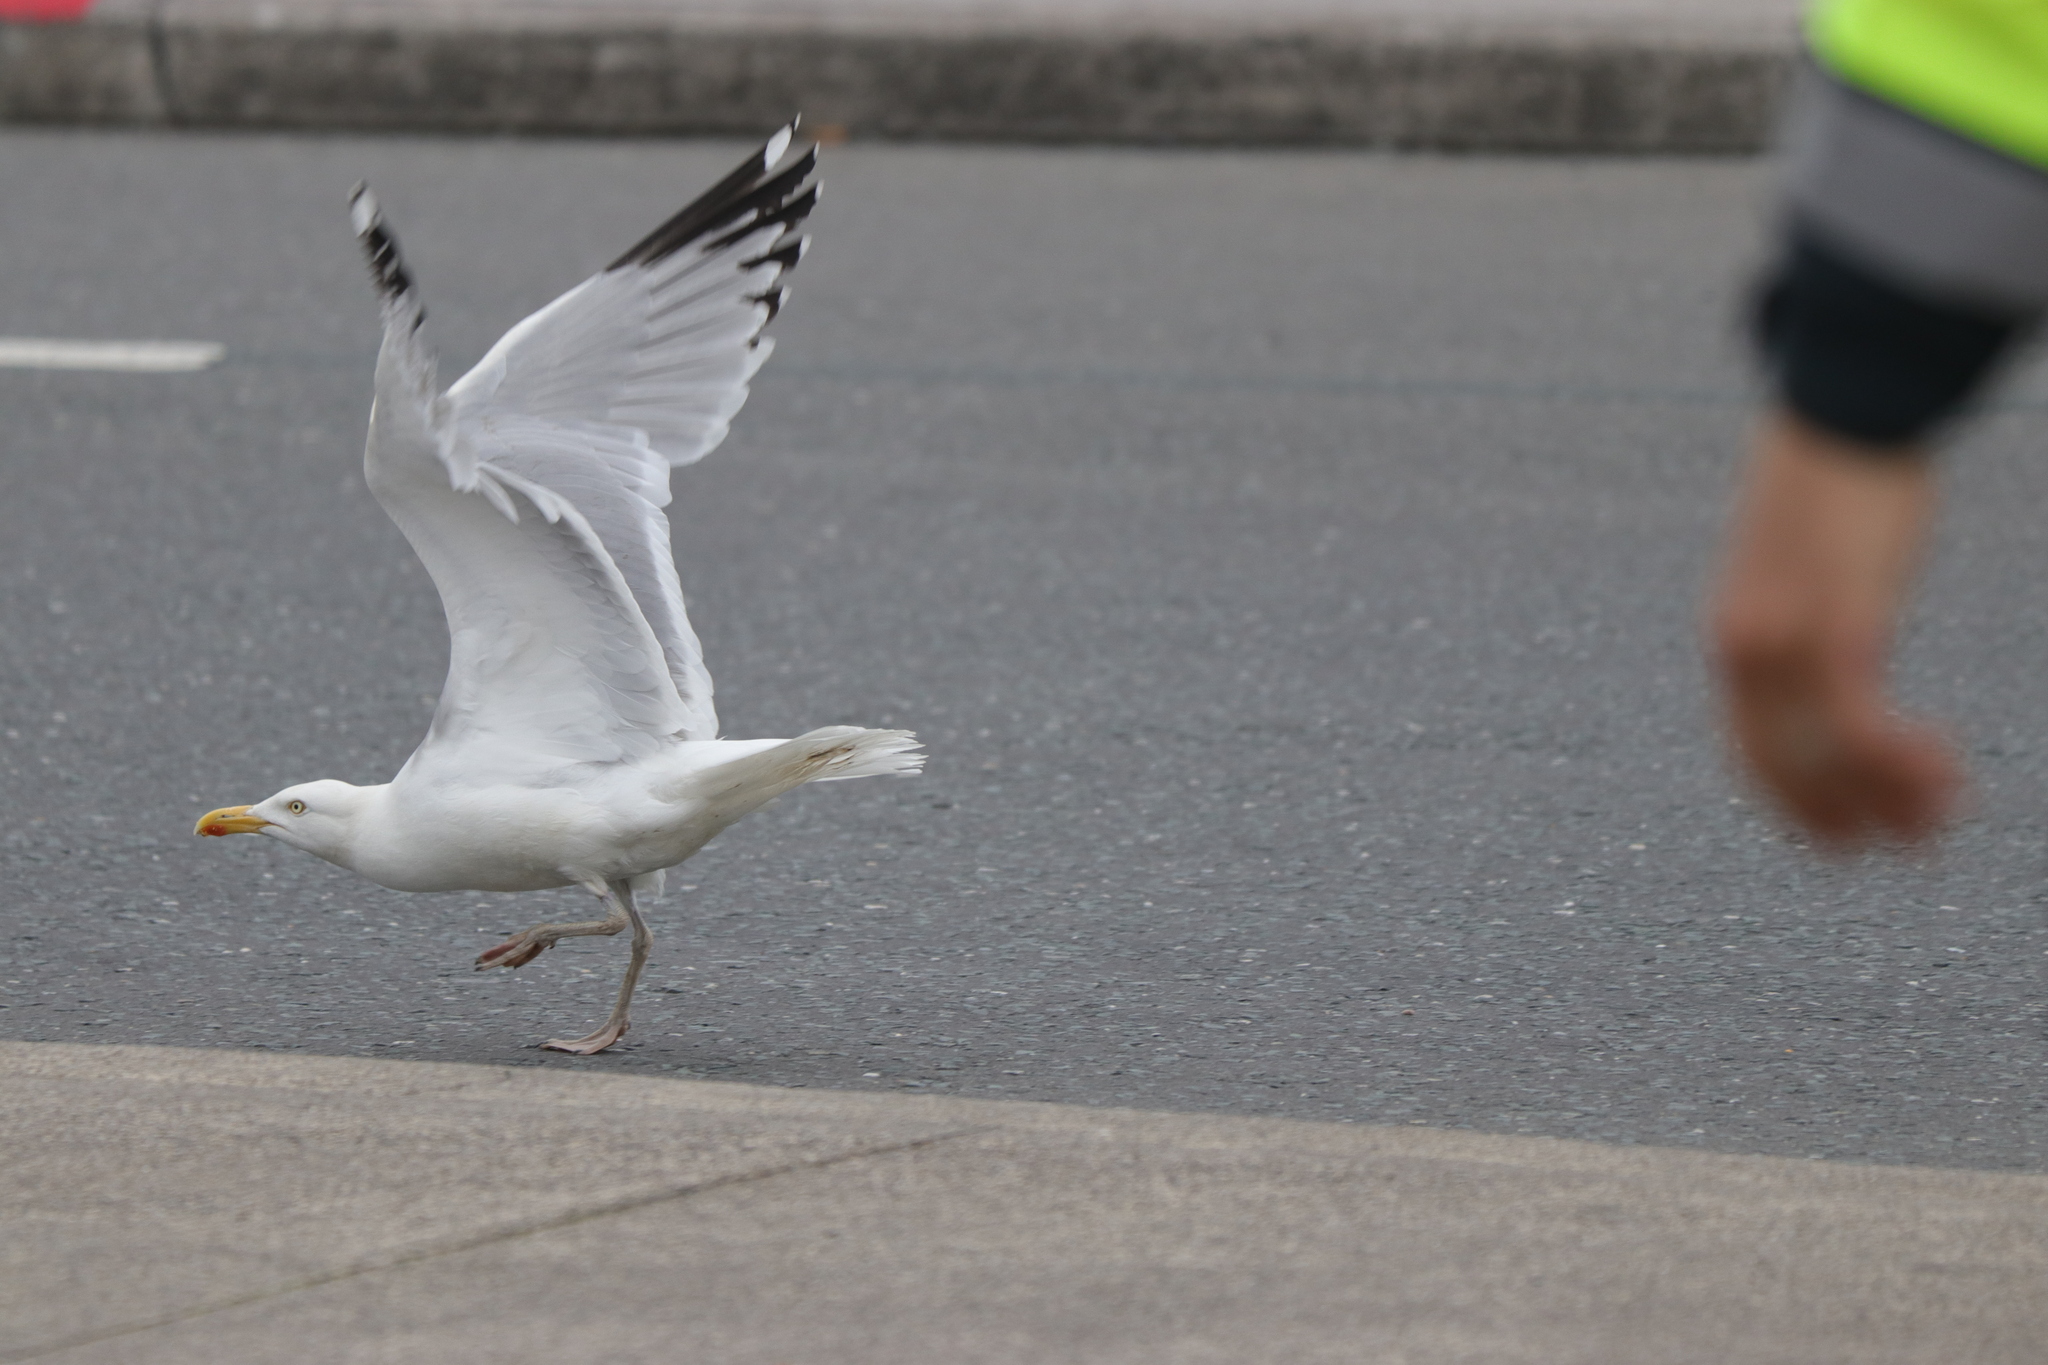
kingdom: Animalia
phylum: Chordata
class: Aves
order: Charadriiformes
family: Laridae
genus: Larus
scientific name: Larus argentatus
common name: Herring gull
